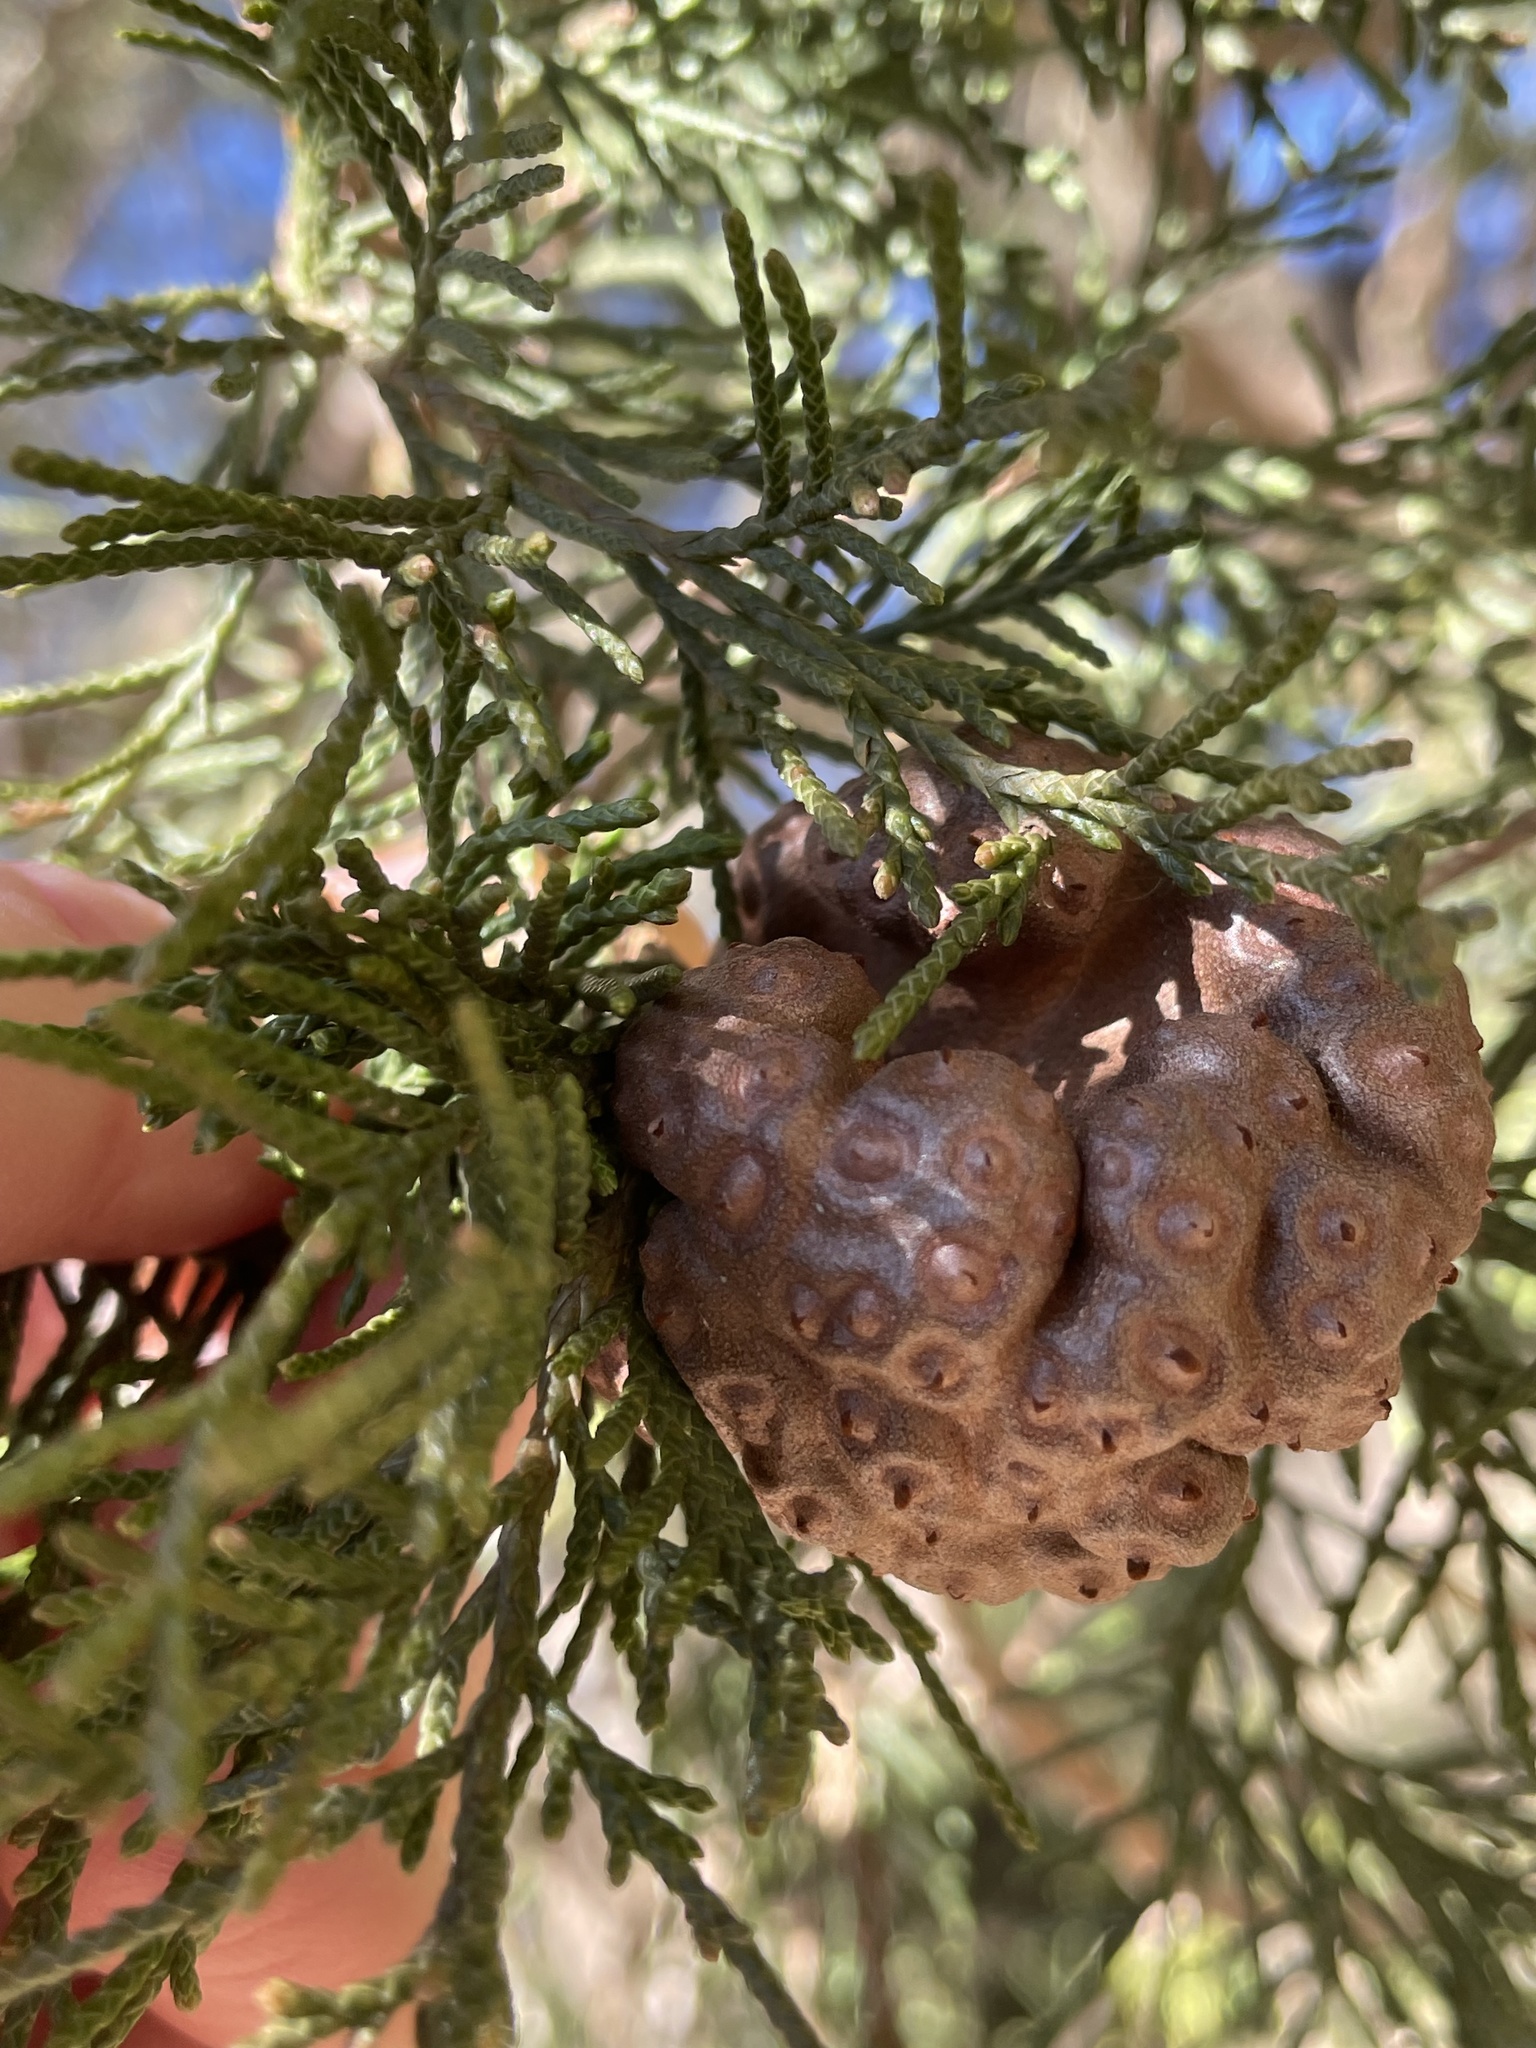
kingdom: Fungi
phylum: Basidiomycota
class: Pucciniomycetes
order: Pucciniales
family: Gymnosporangiaceae
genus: Gymnosporangium
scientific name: Gymnosporangium juniperi-virginianae
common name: Juniper-apple rust
